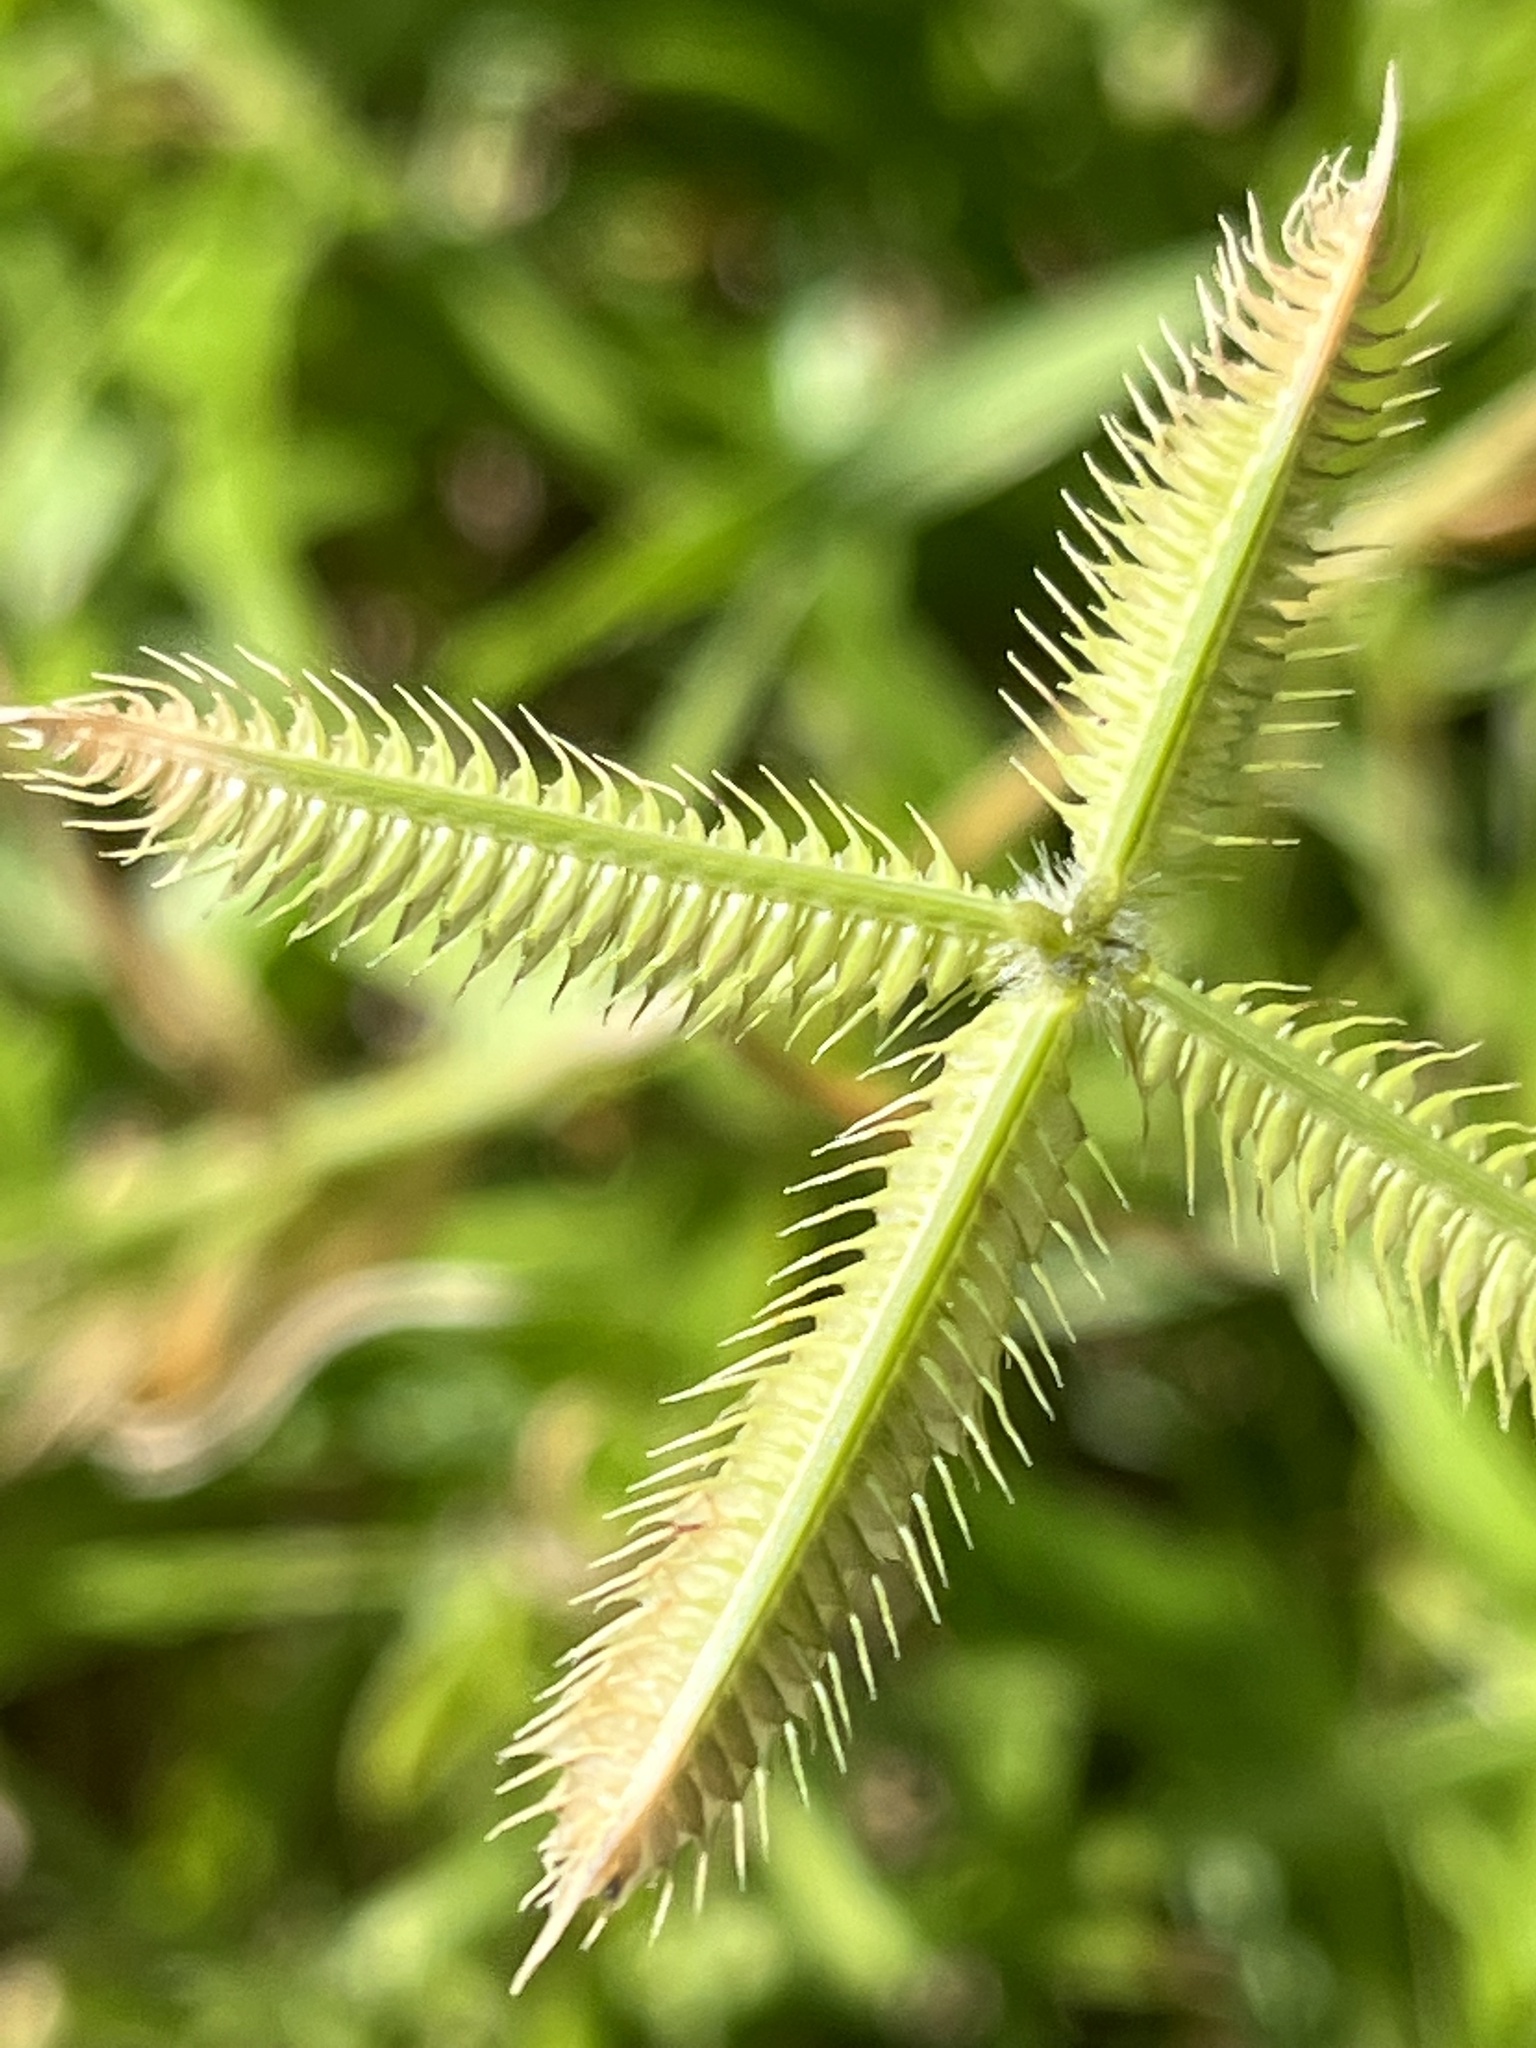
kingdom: Plantae
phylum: Tracheophyta
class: Liliopsida
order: Poales
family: Poaceae
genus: Dactyloctenium
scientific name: Dactyloctenium aegyptium
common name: Egyptian grass
